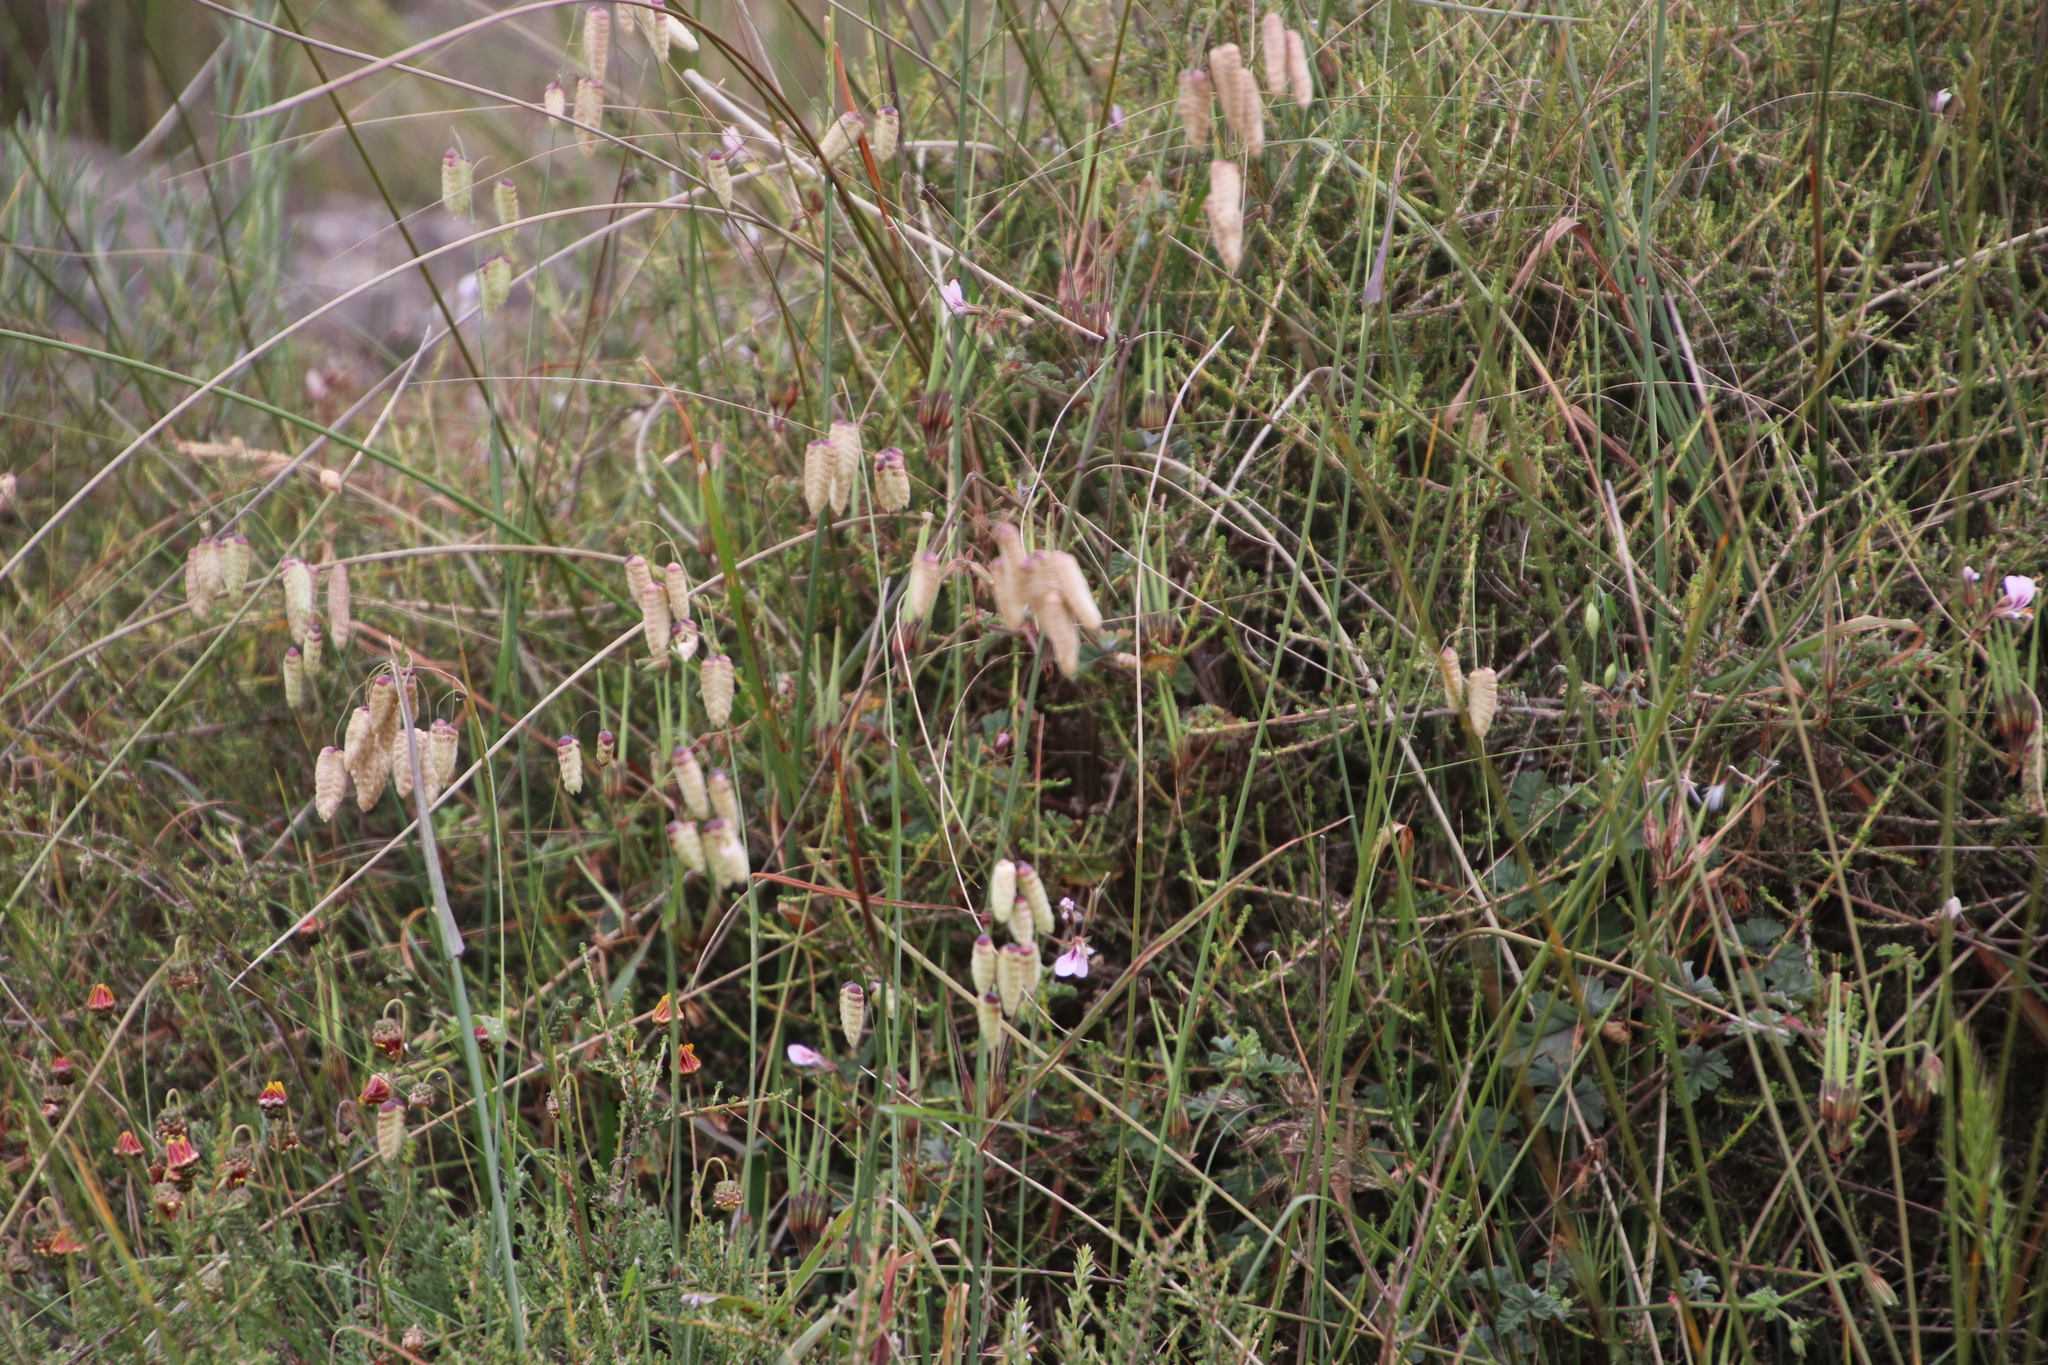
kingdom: Plantae
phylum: Tracheophyta
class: Liliopsida
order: Poales
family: Poaceae
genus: Briza
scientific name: Briza maxima
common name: Big quakinggrass
